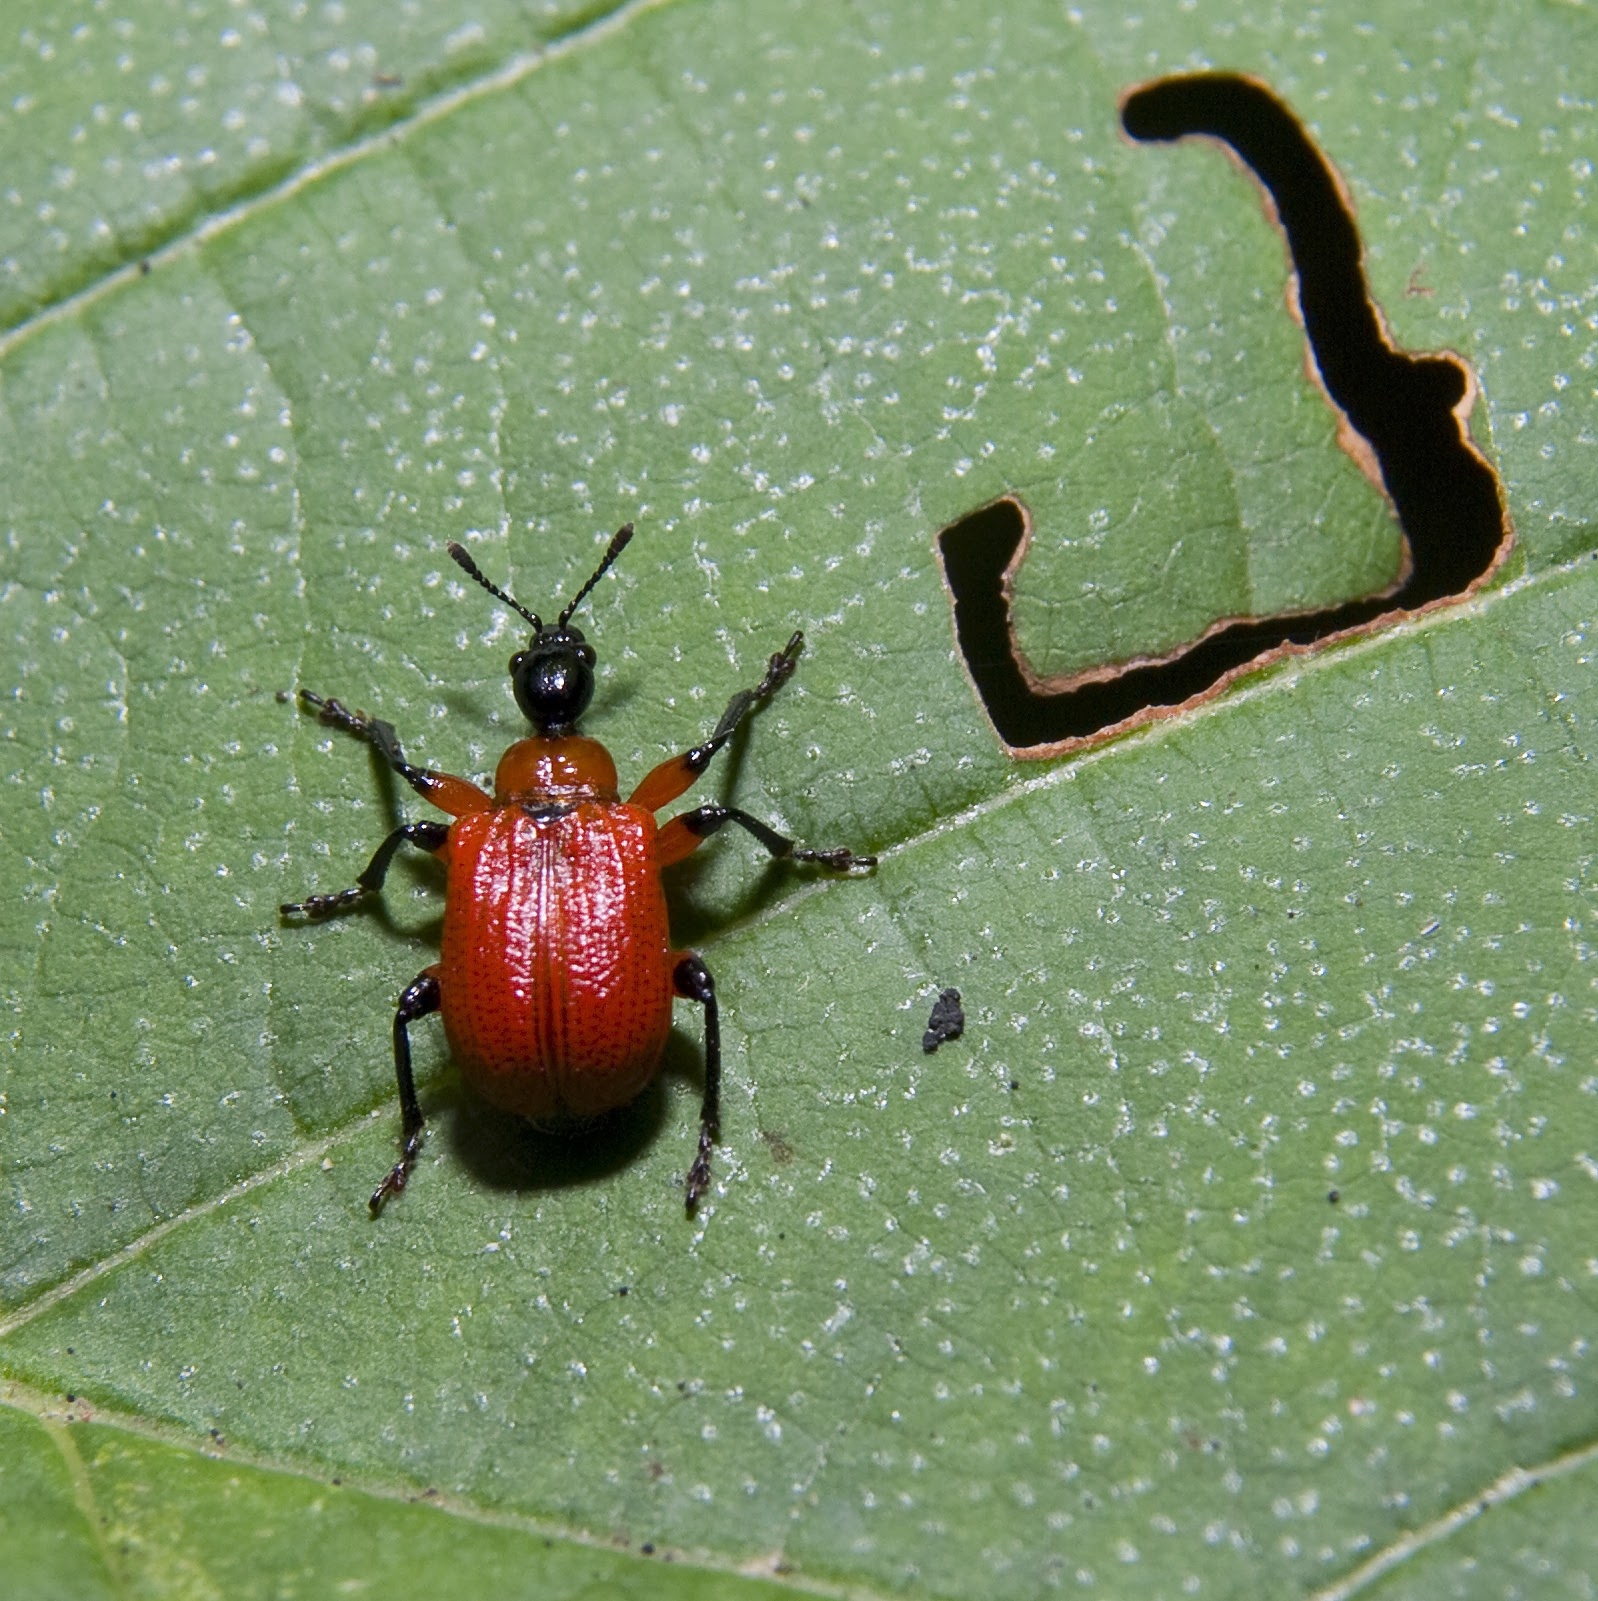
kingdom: Animalia
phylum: Arthropoda
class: Insecta
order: Coleoptera
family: Attelabidae
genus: Apoderus
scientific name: Apoderus coryli
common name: Hazel leaf roller
